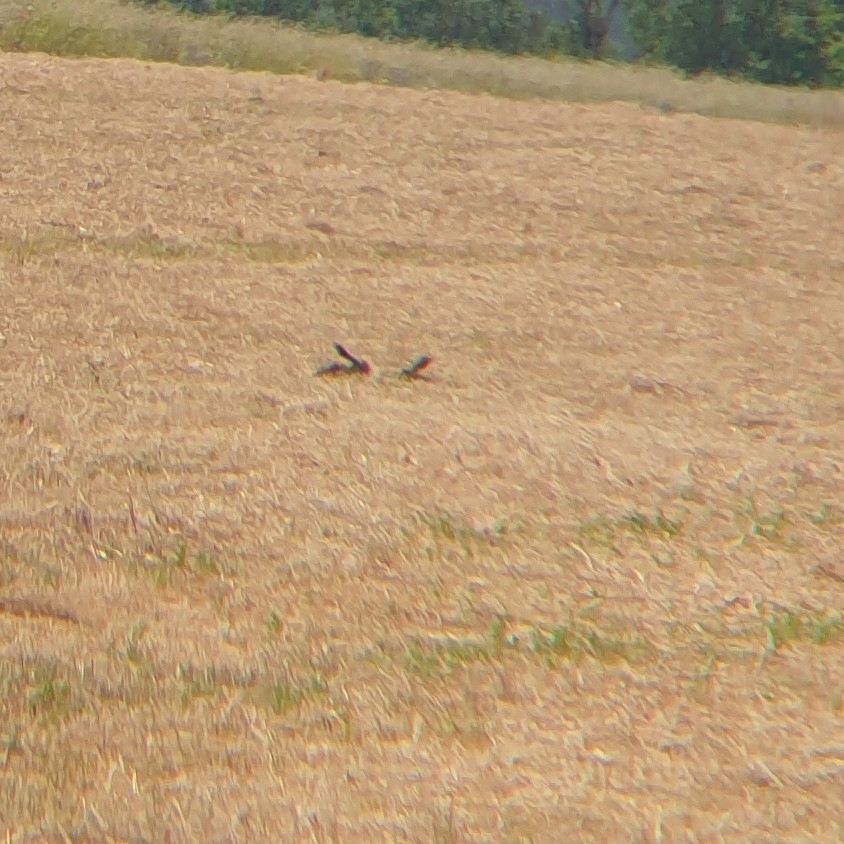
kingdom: Animalia
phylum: Chordata
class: Mammalia
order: Lagomorpha
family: Leporidae
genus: Lepus
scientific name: Lepus europaeus
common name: European hare
